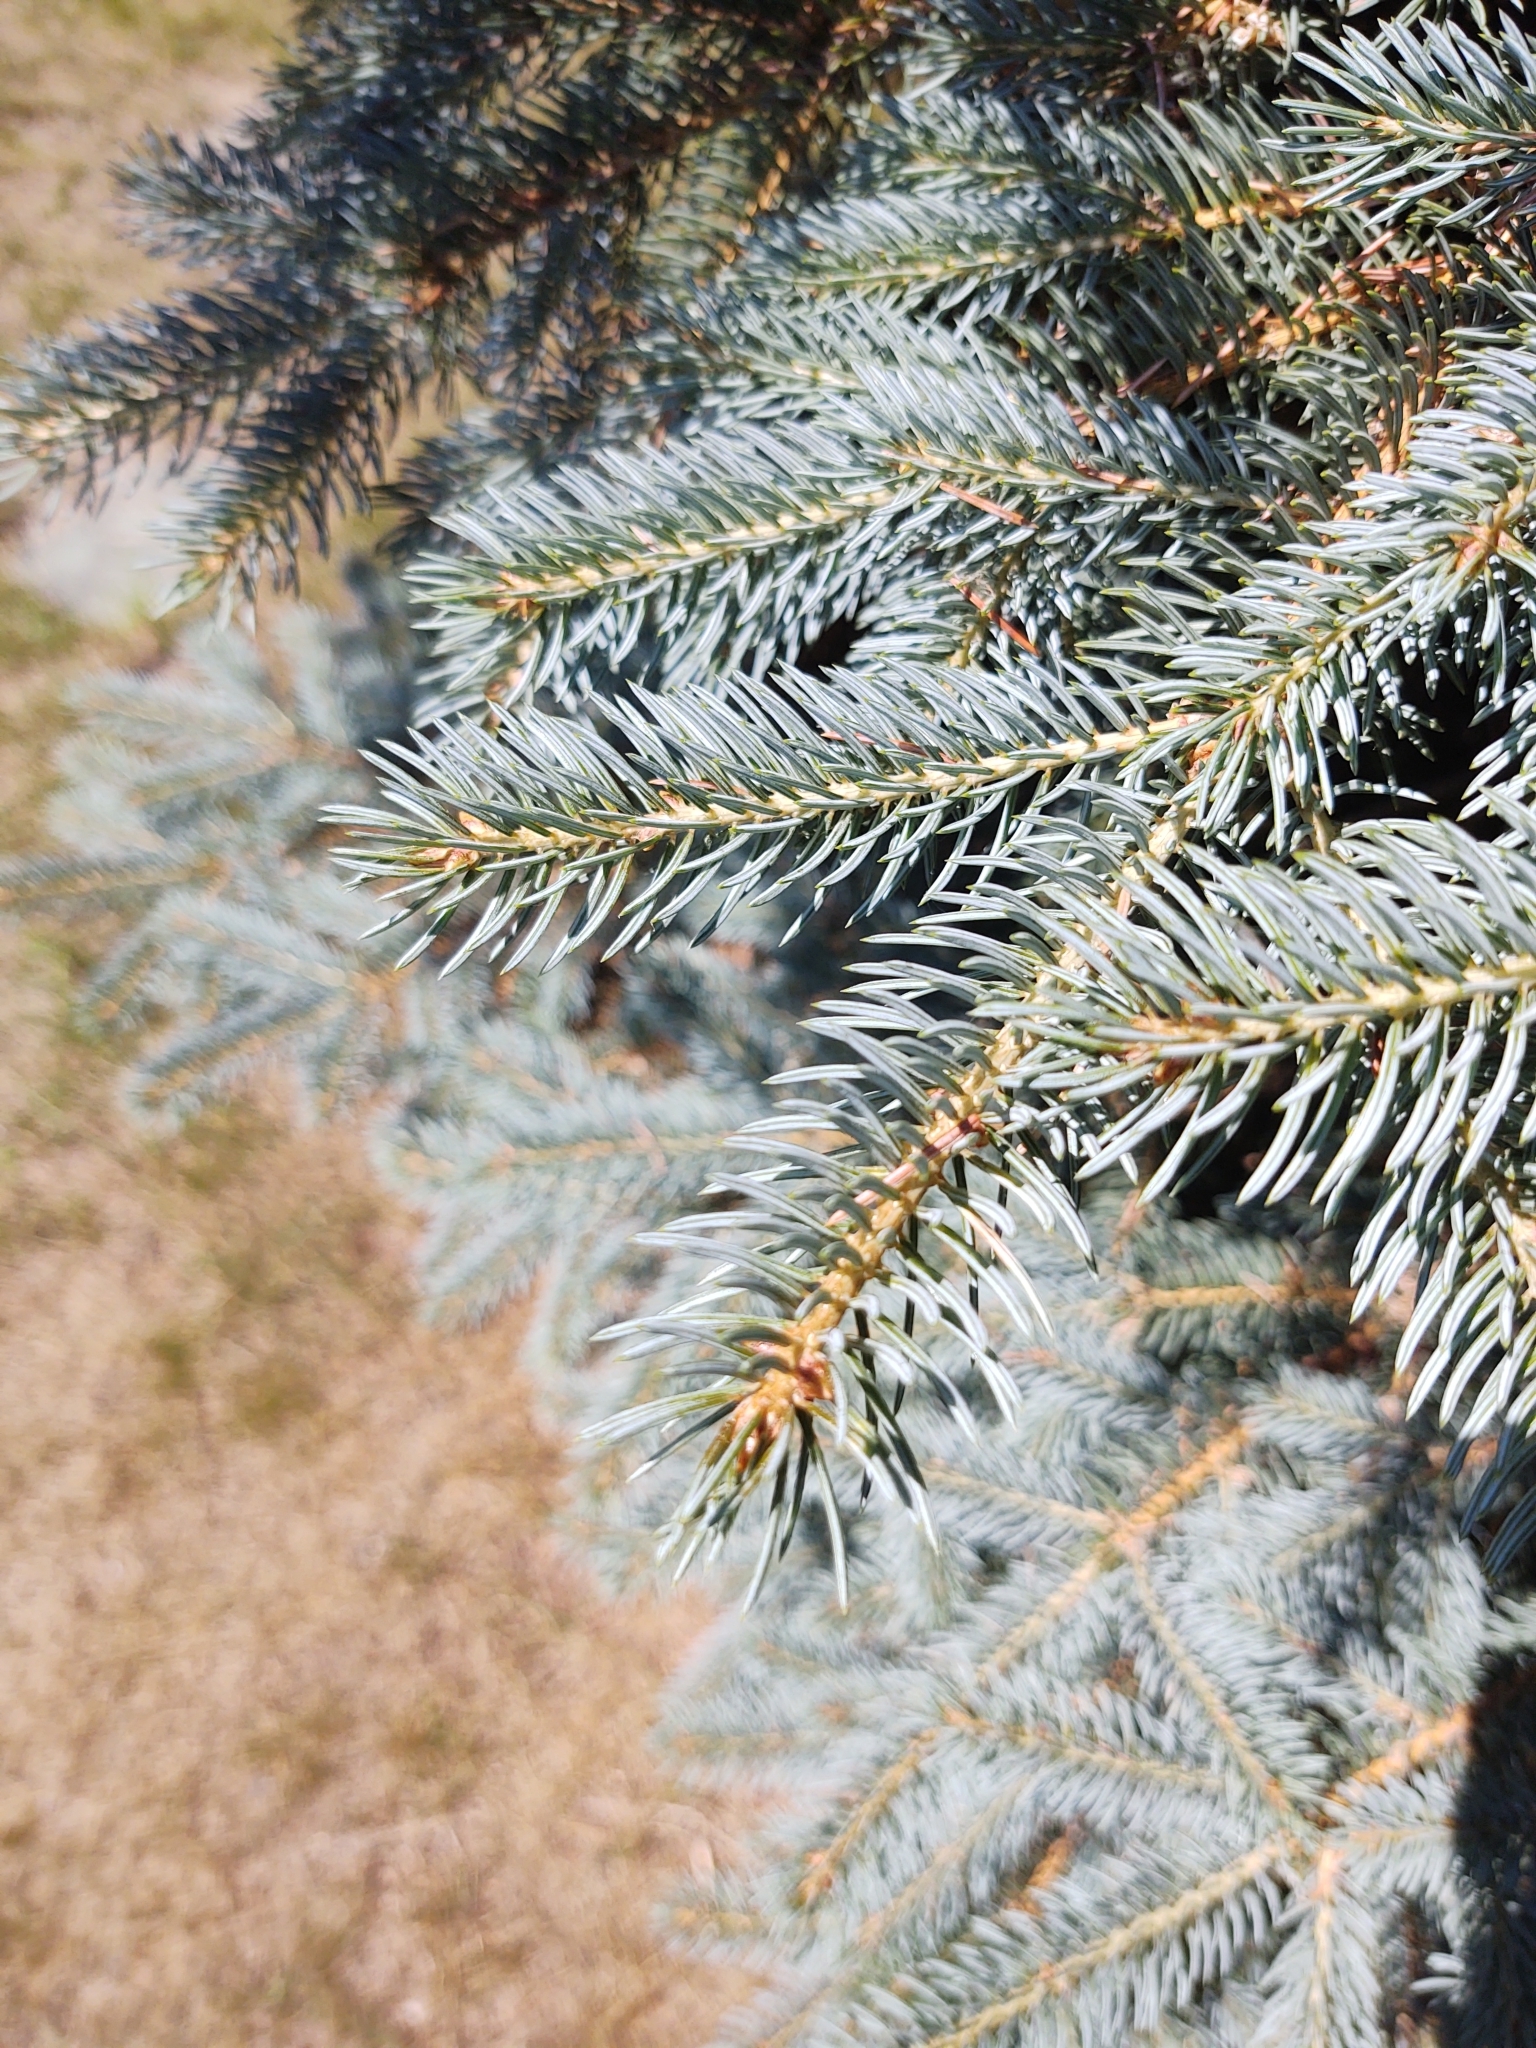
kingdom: Plantae
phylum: Tracheophyta
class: Pinopsida
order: Pinales
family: Pinaceae
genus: Picea
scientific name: Picea pungens
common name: Colorado spruce
